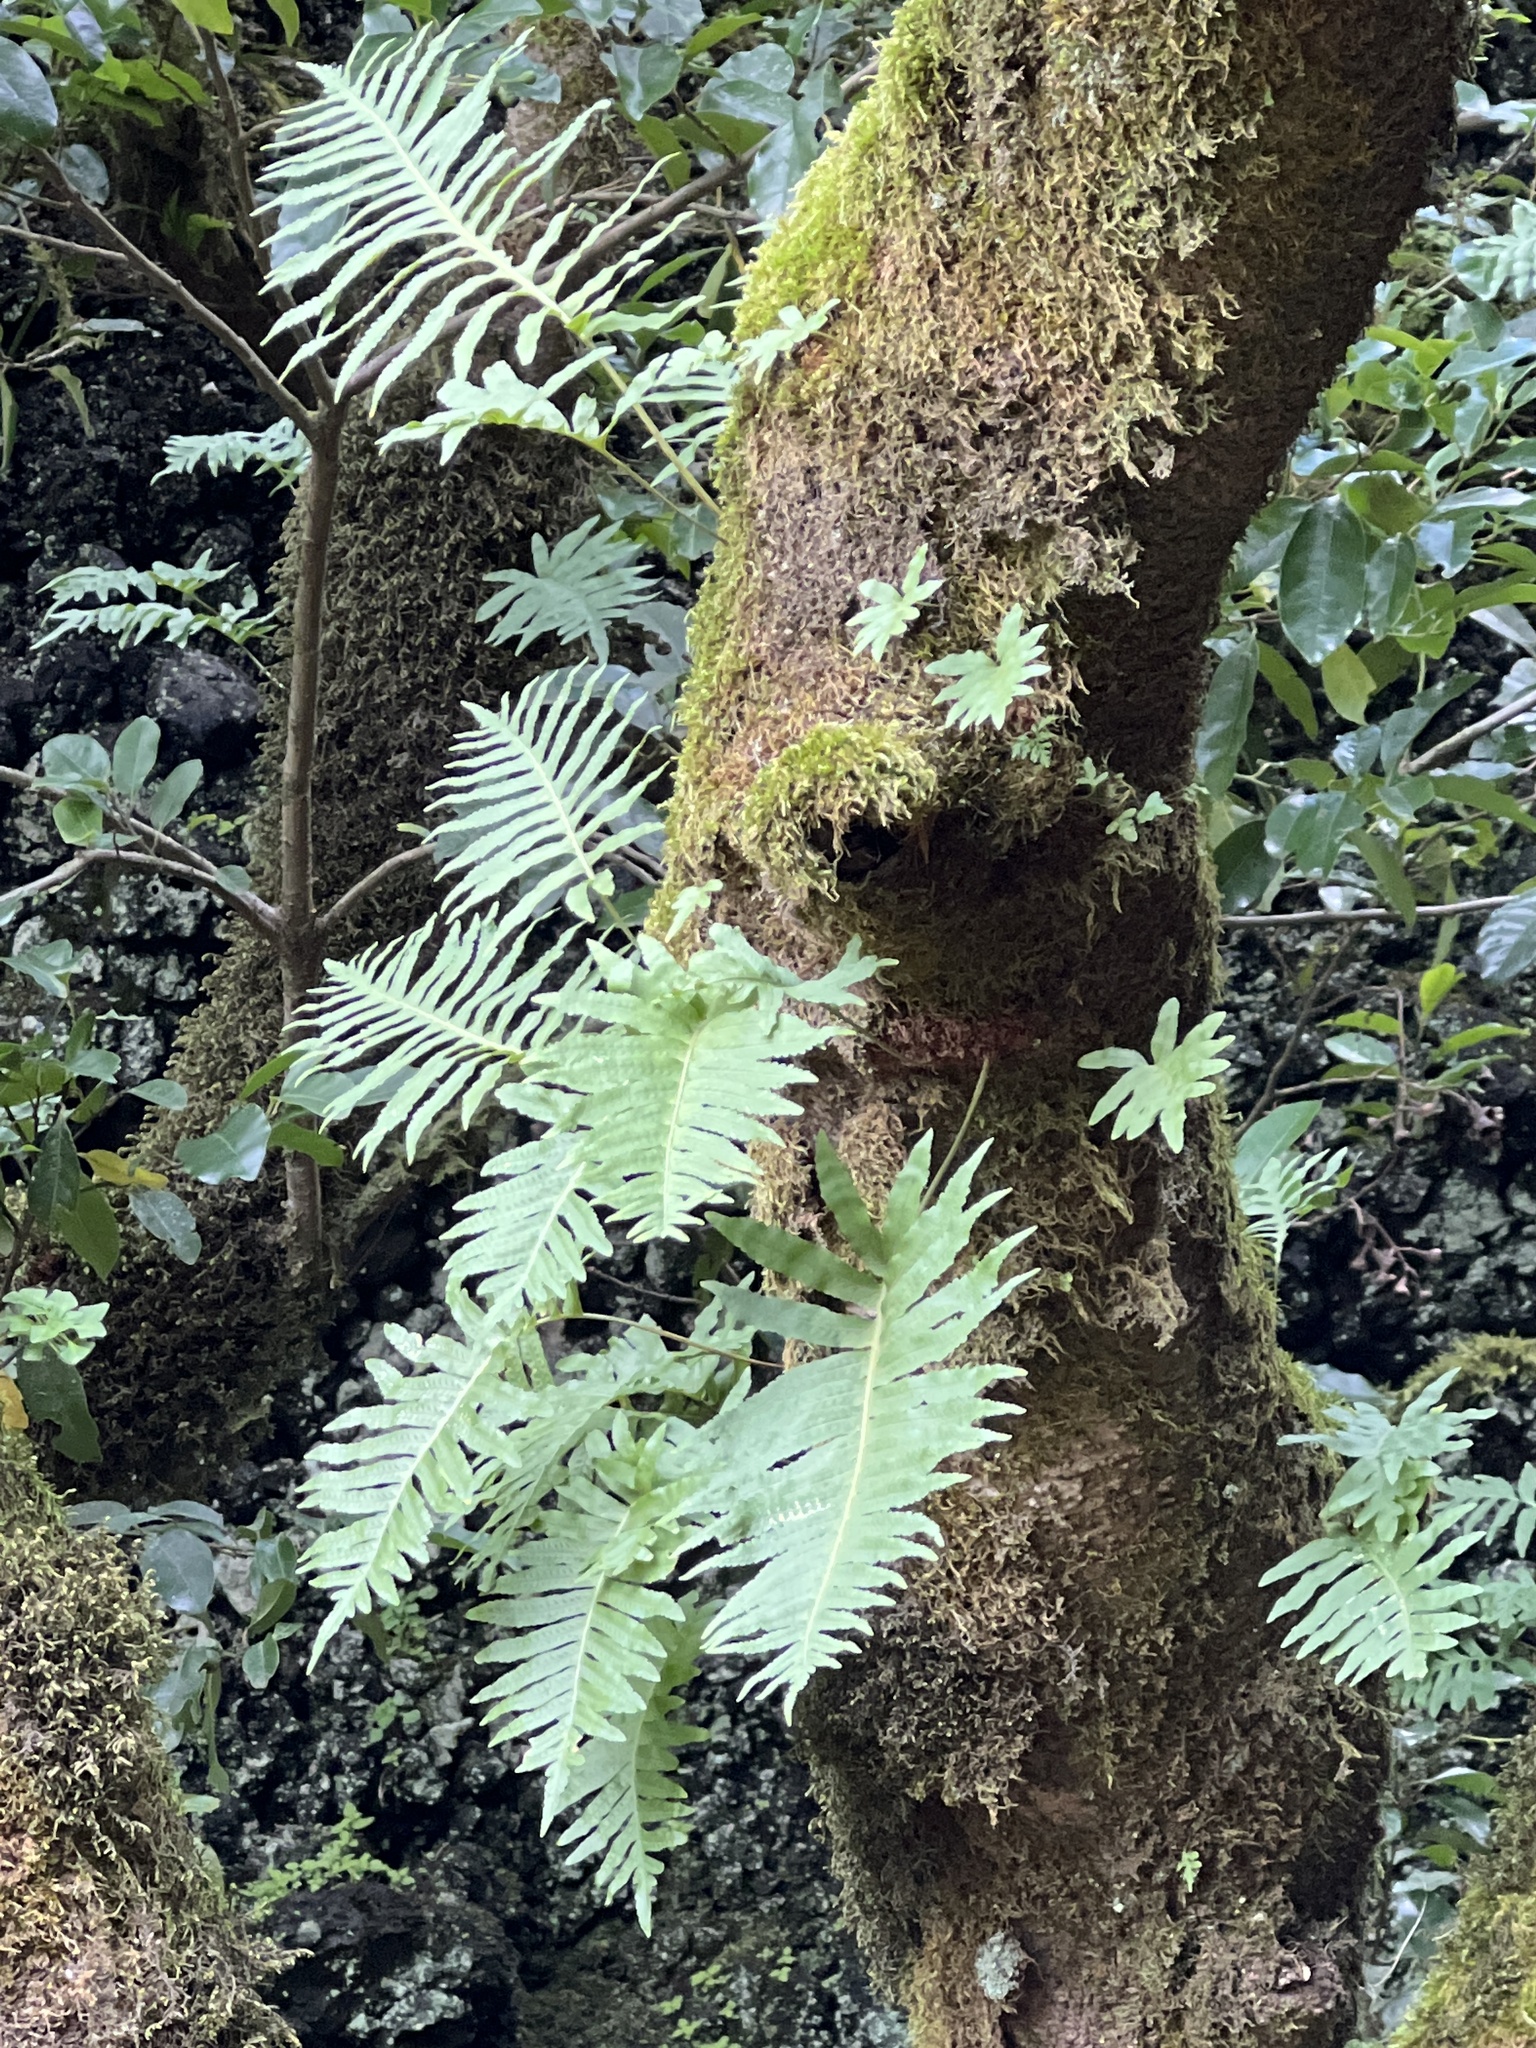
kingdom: Plantae
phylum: Tracheophyta
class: Polypodiopsida
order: Polypodiales
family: Polypodiaceae
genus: Polypodium
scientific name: Polypodium macaronesicum
